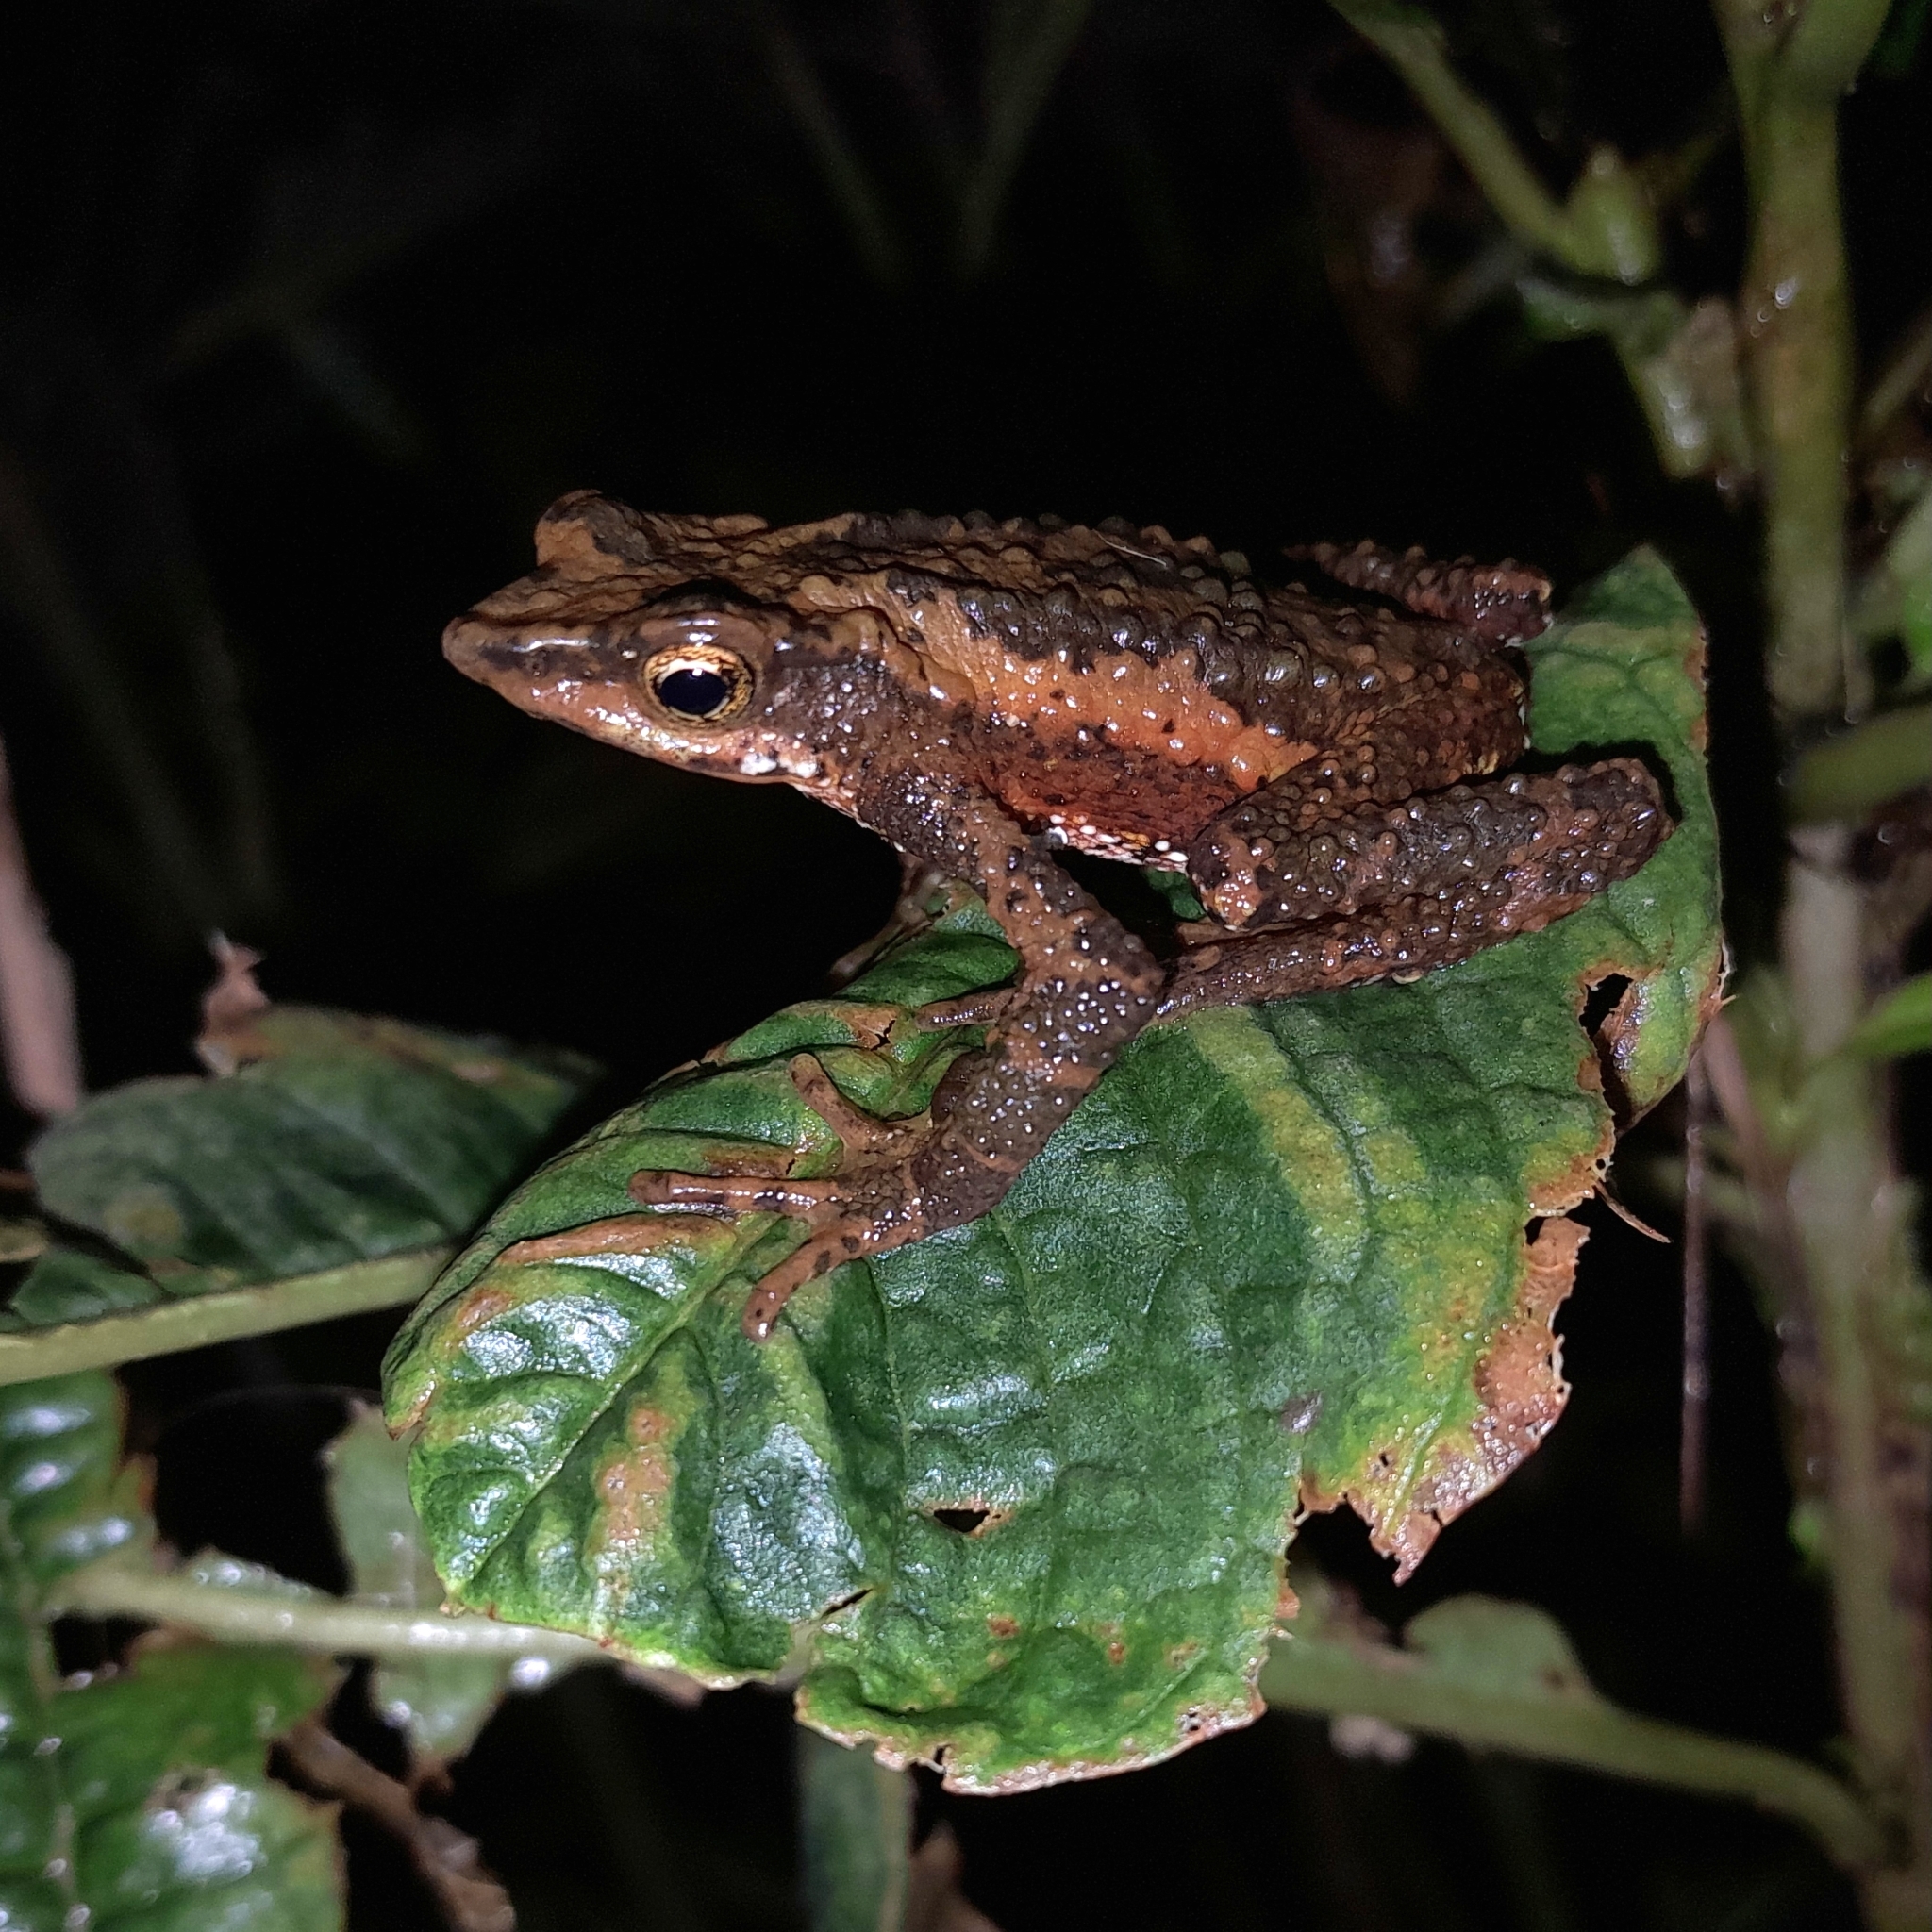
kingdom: Animalia
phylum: Chordata
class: Amphibia
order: Anura
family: Bufonidae
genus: Atelopus
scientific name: Atelopus laetissimus
